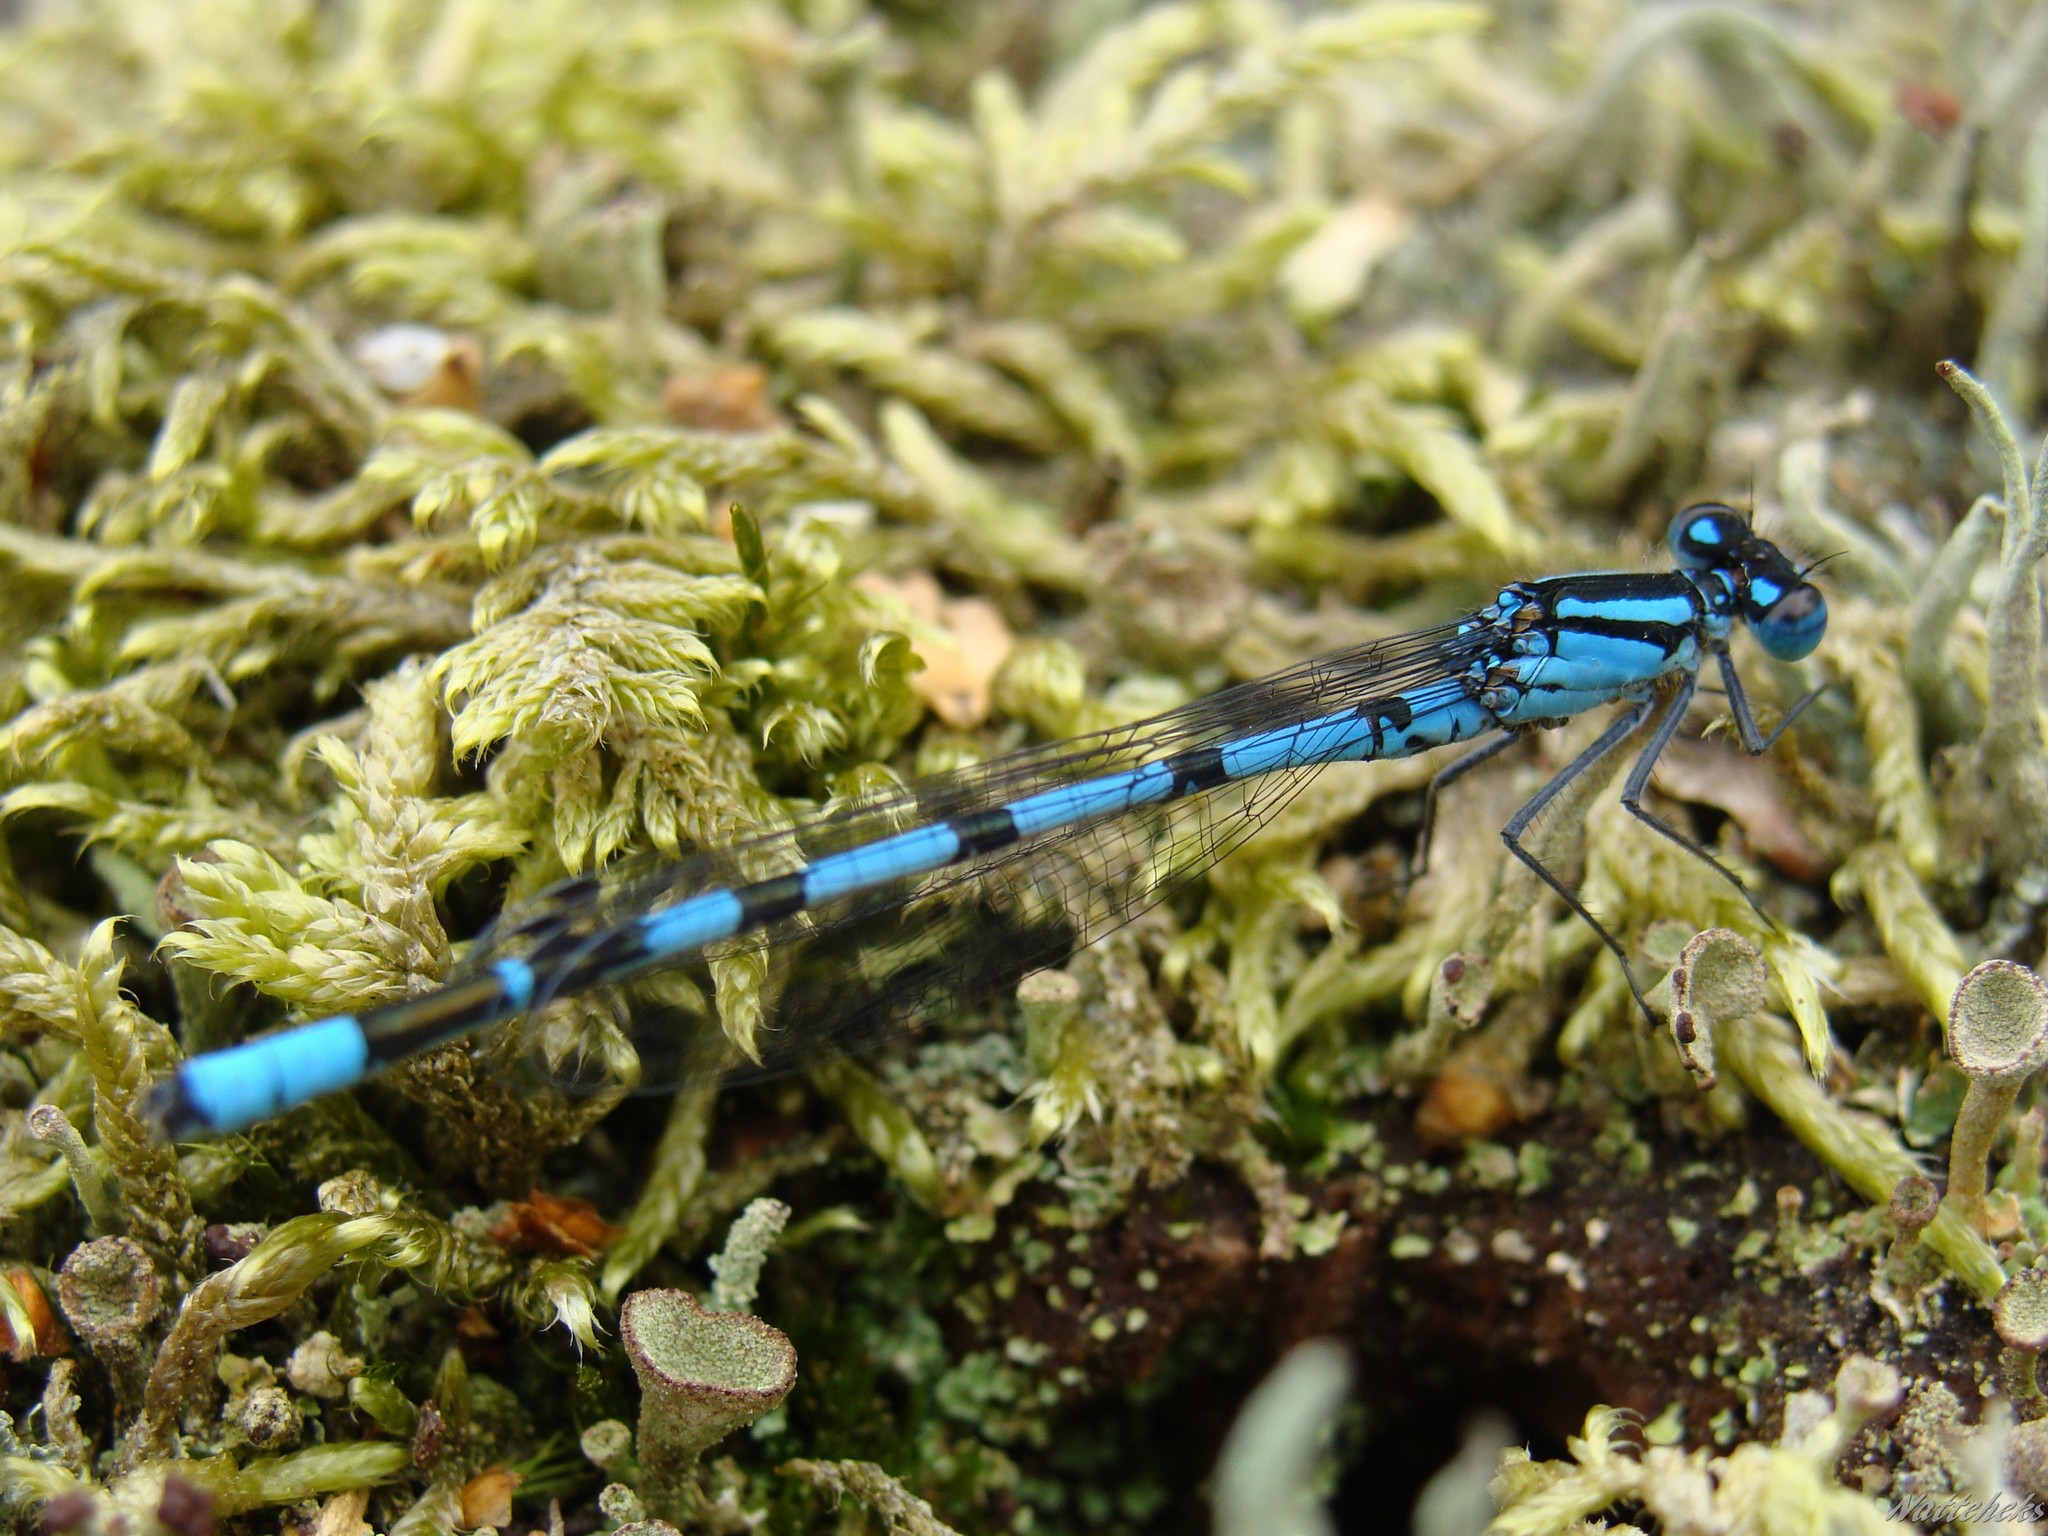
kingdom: Animalia
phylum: Arthropoda
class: Insecta
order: Odonata
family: Coenagrionidae
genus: Enallagma
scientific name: Enallagma cyathigerum
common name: Common blue damselfly
